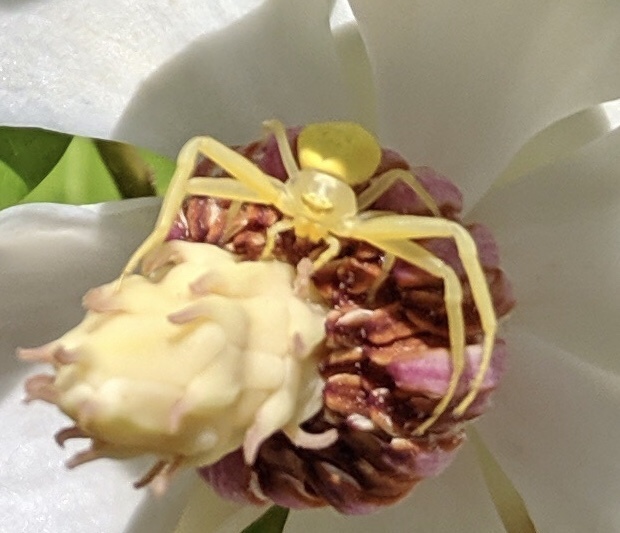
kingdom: Animalia
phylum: Arthropoda
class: Arachnida
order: Araneae
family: Thomisidae
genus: Misumena
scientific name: Misumena vatia
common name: Goldenrod crab spider
